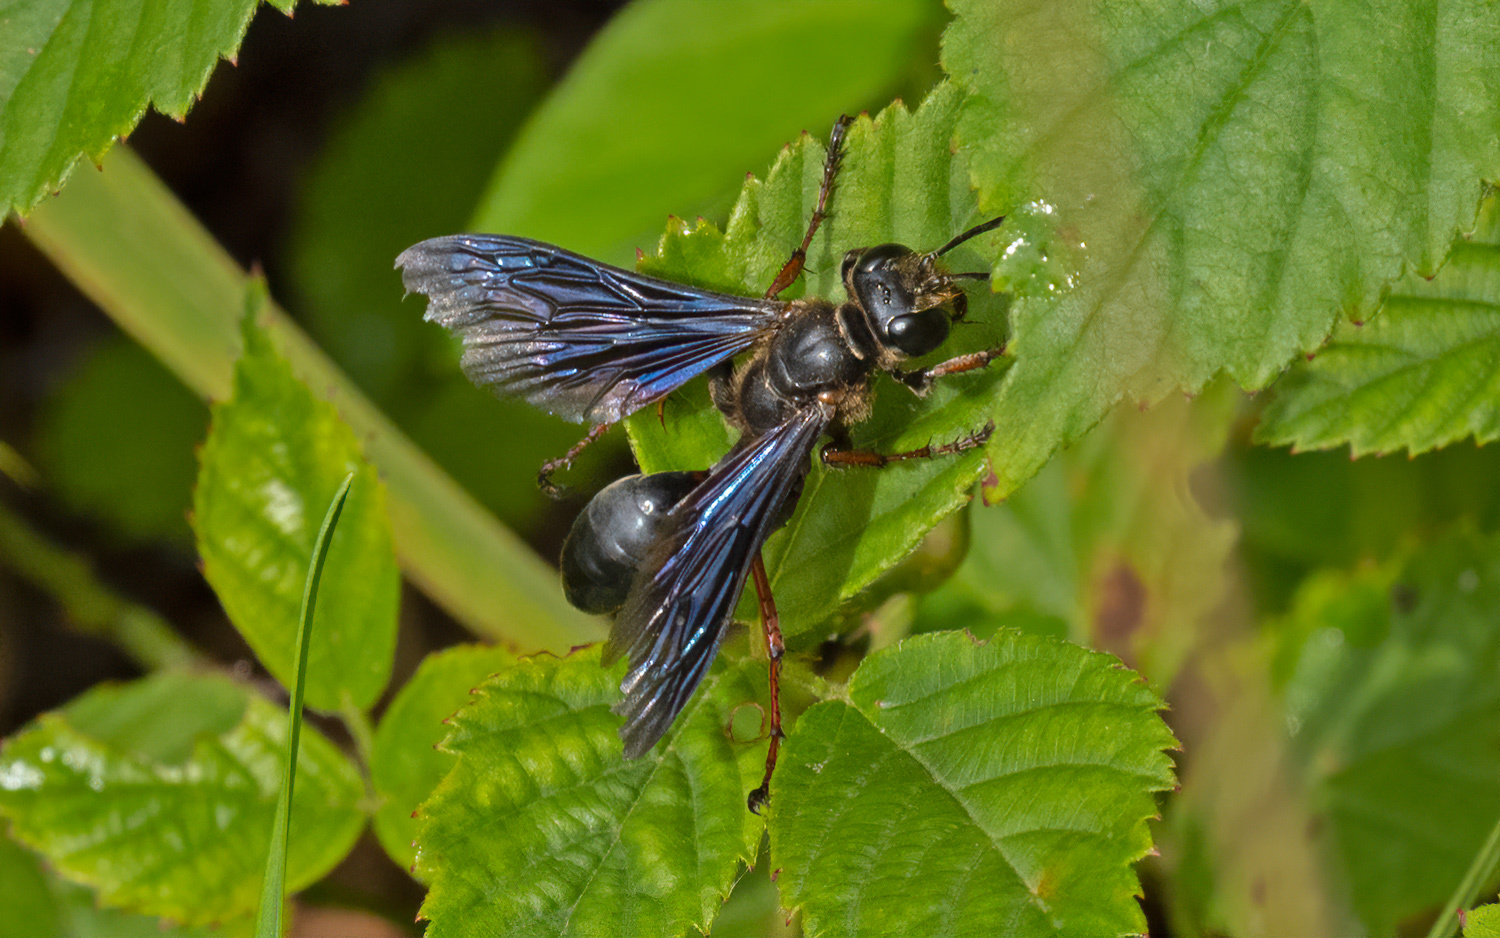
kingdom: Animalia
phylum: Arthropoda
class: Insecta
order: Hymenoptera
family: Sphecidae
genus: Isodontia
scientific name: Isodontia auripes
